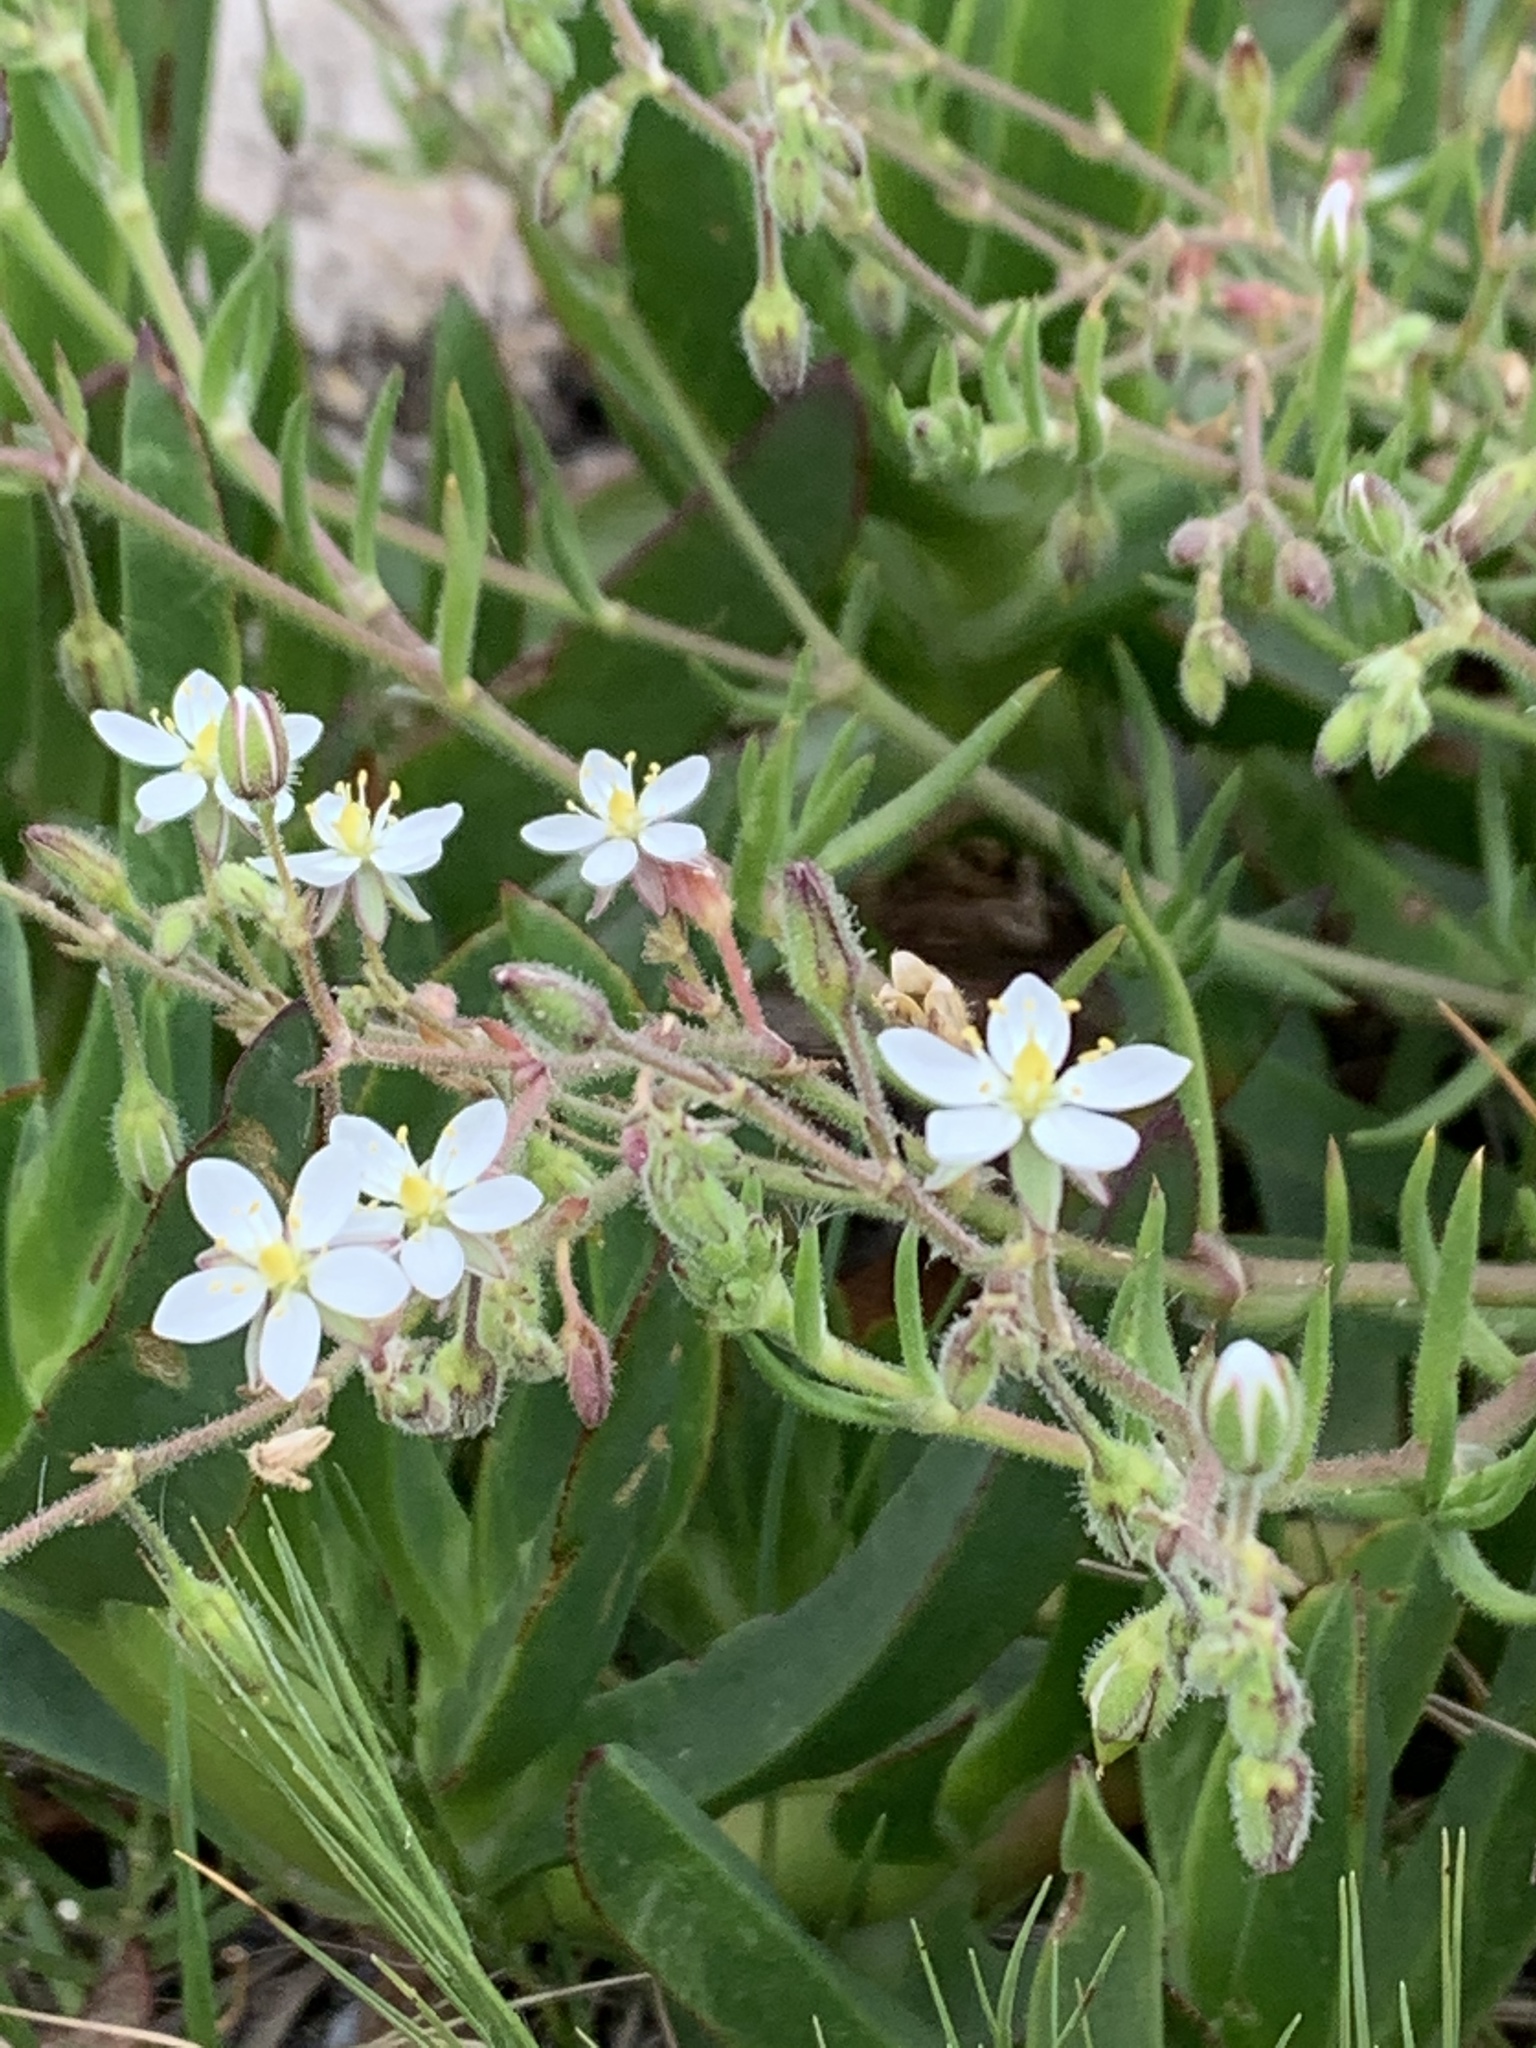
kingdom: Plantae
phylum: Tracheophyta
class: Magnoliopsida
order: Caryophyllales
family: Caryophyllaceae
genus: Spergularia
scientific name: Spergularia media
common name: Greater sea-spurrey
